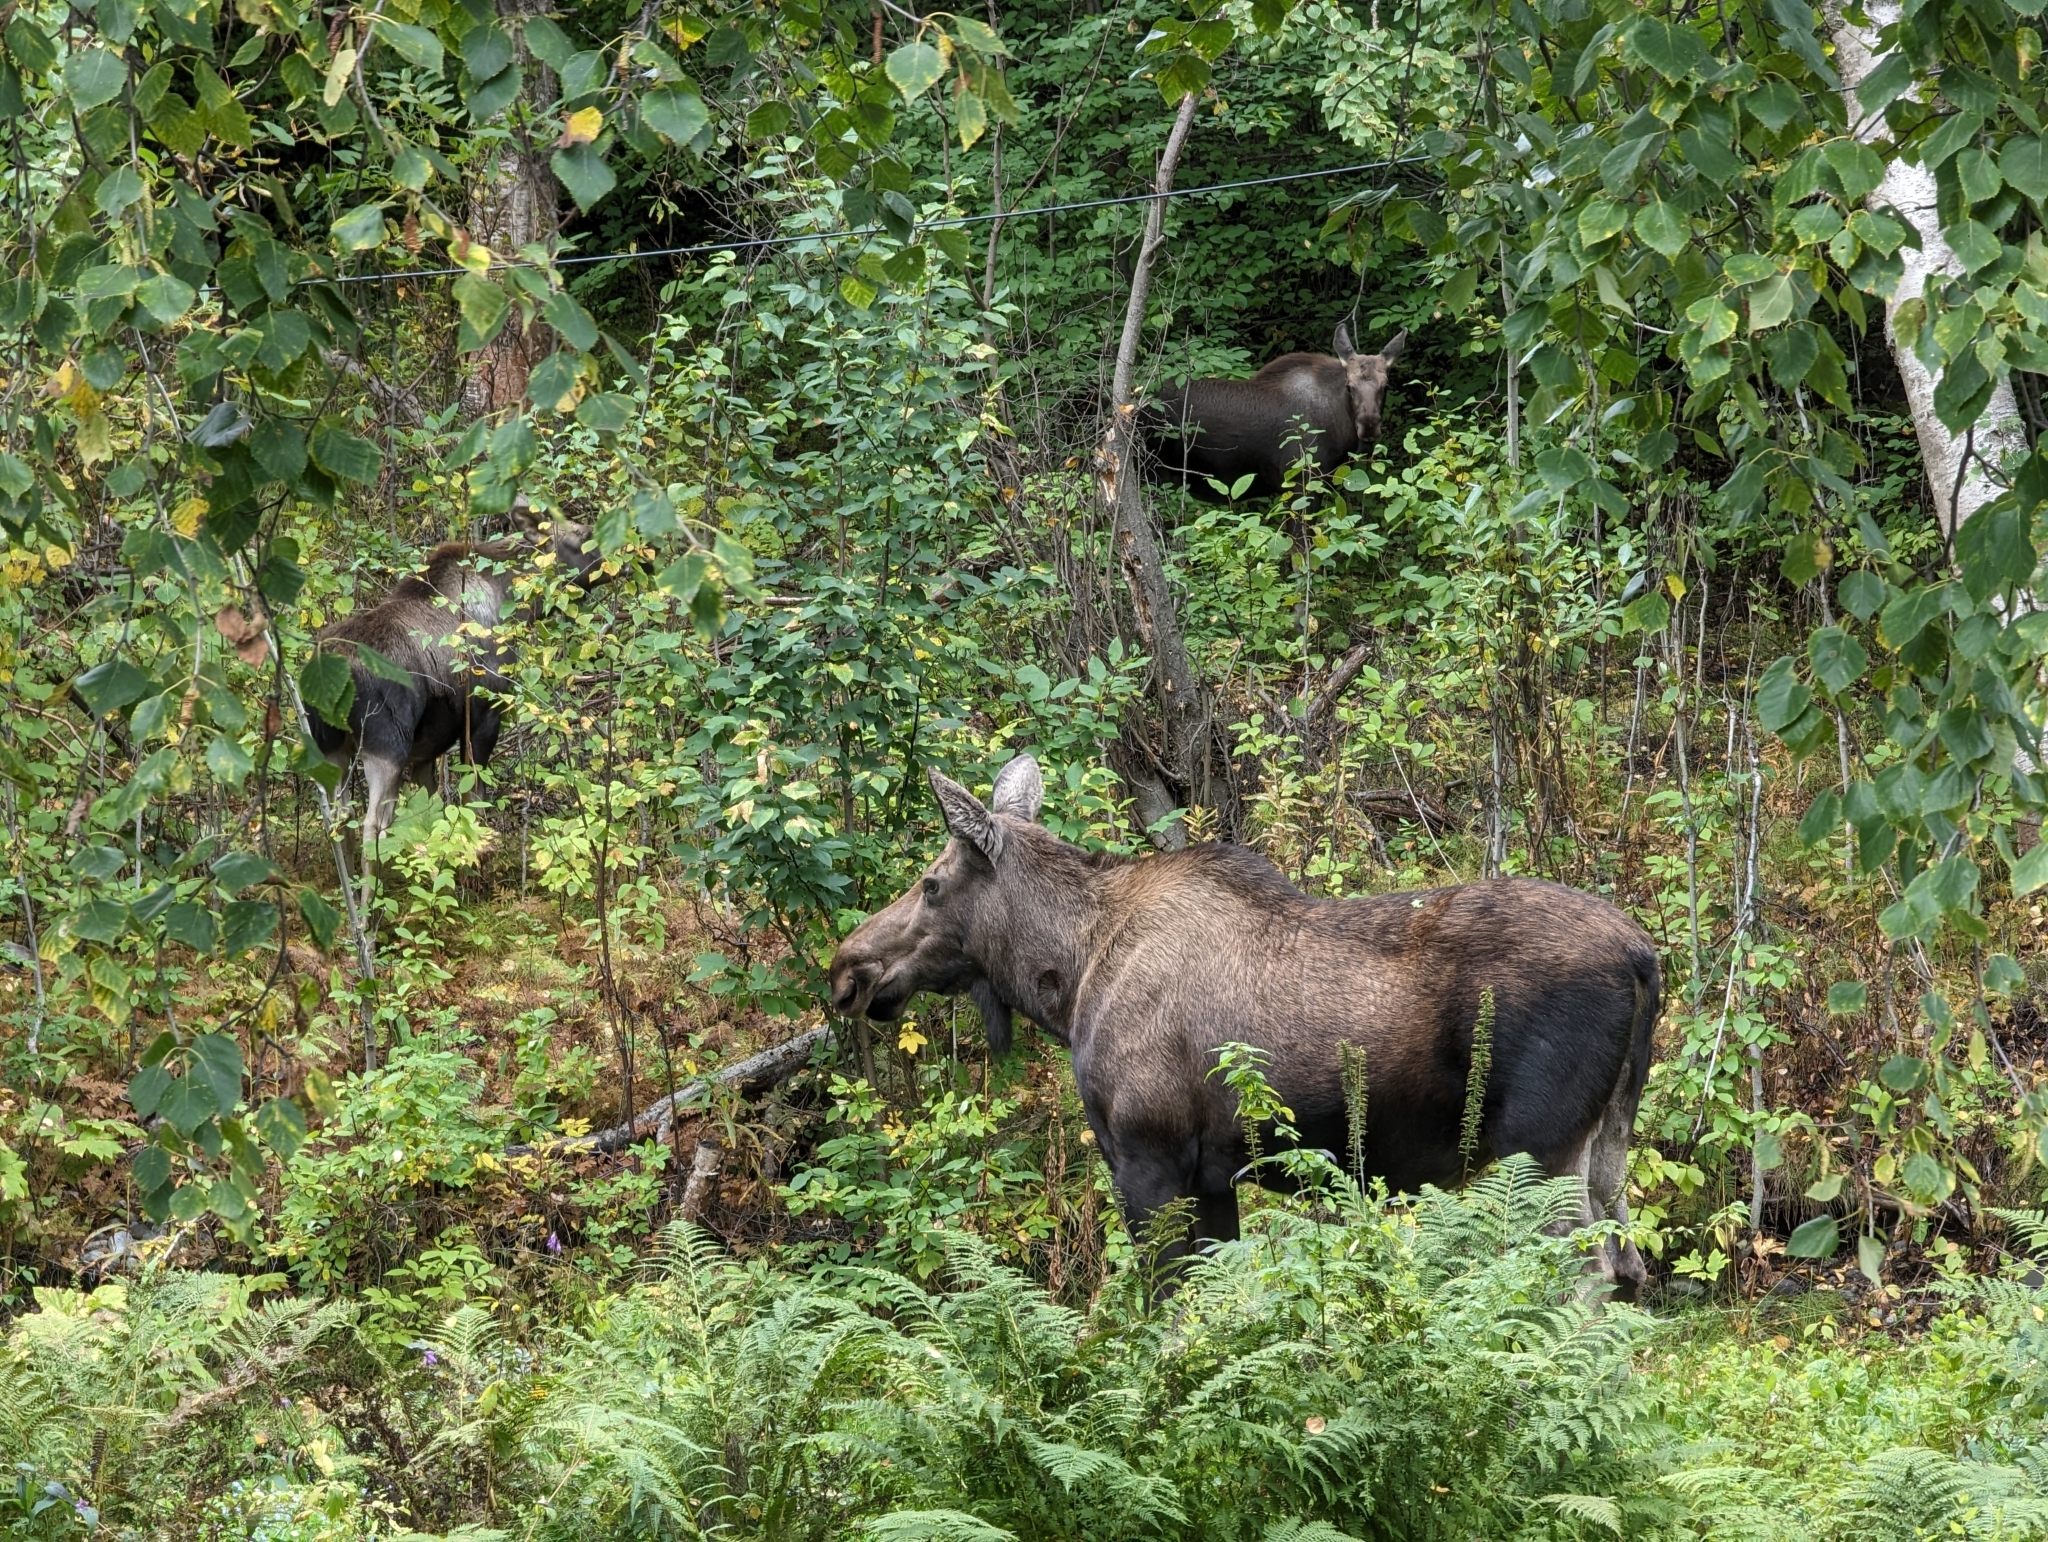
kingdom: Animalia
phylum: Chordata
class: Mammalia
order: Artiodactyla
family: Cervidae
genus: Alces
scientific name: Alces alces
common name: Moose
